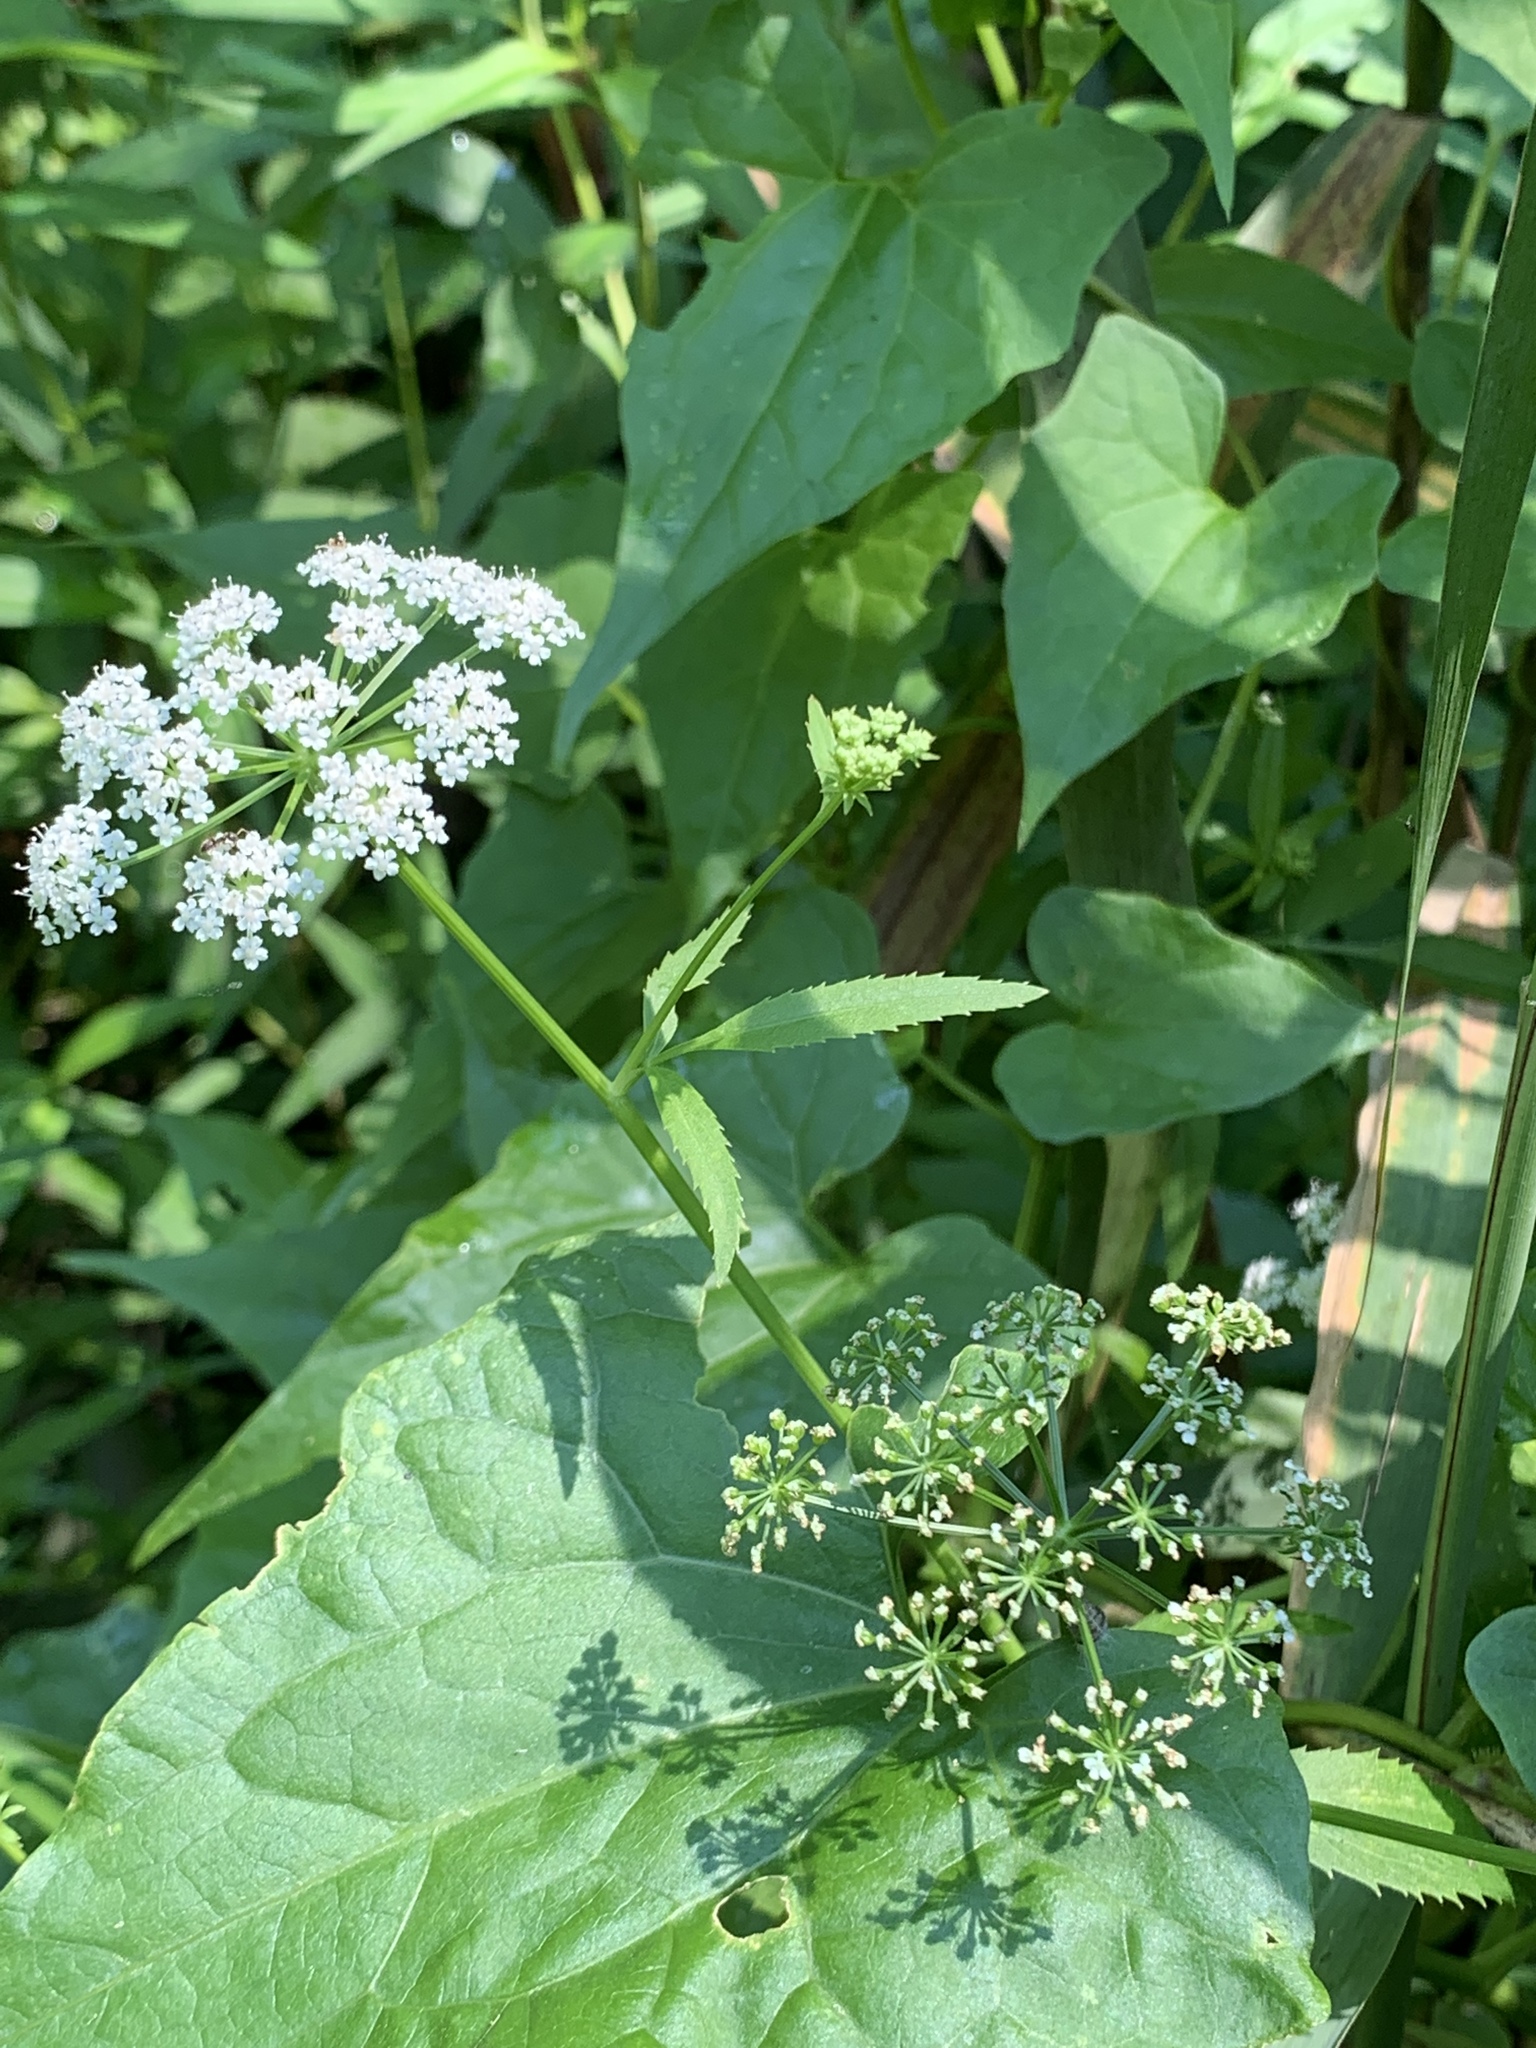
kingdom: Plantae
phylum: Tracheophyta
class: Magnoliopsida
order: Apiales
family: Apiaceae
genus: Sium
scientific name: Sium suave
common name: Hemlock water-parsnip
